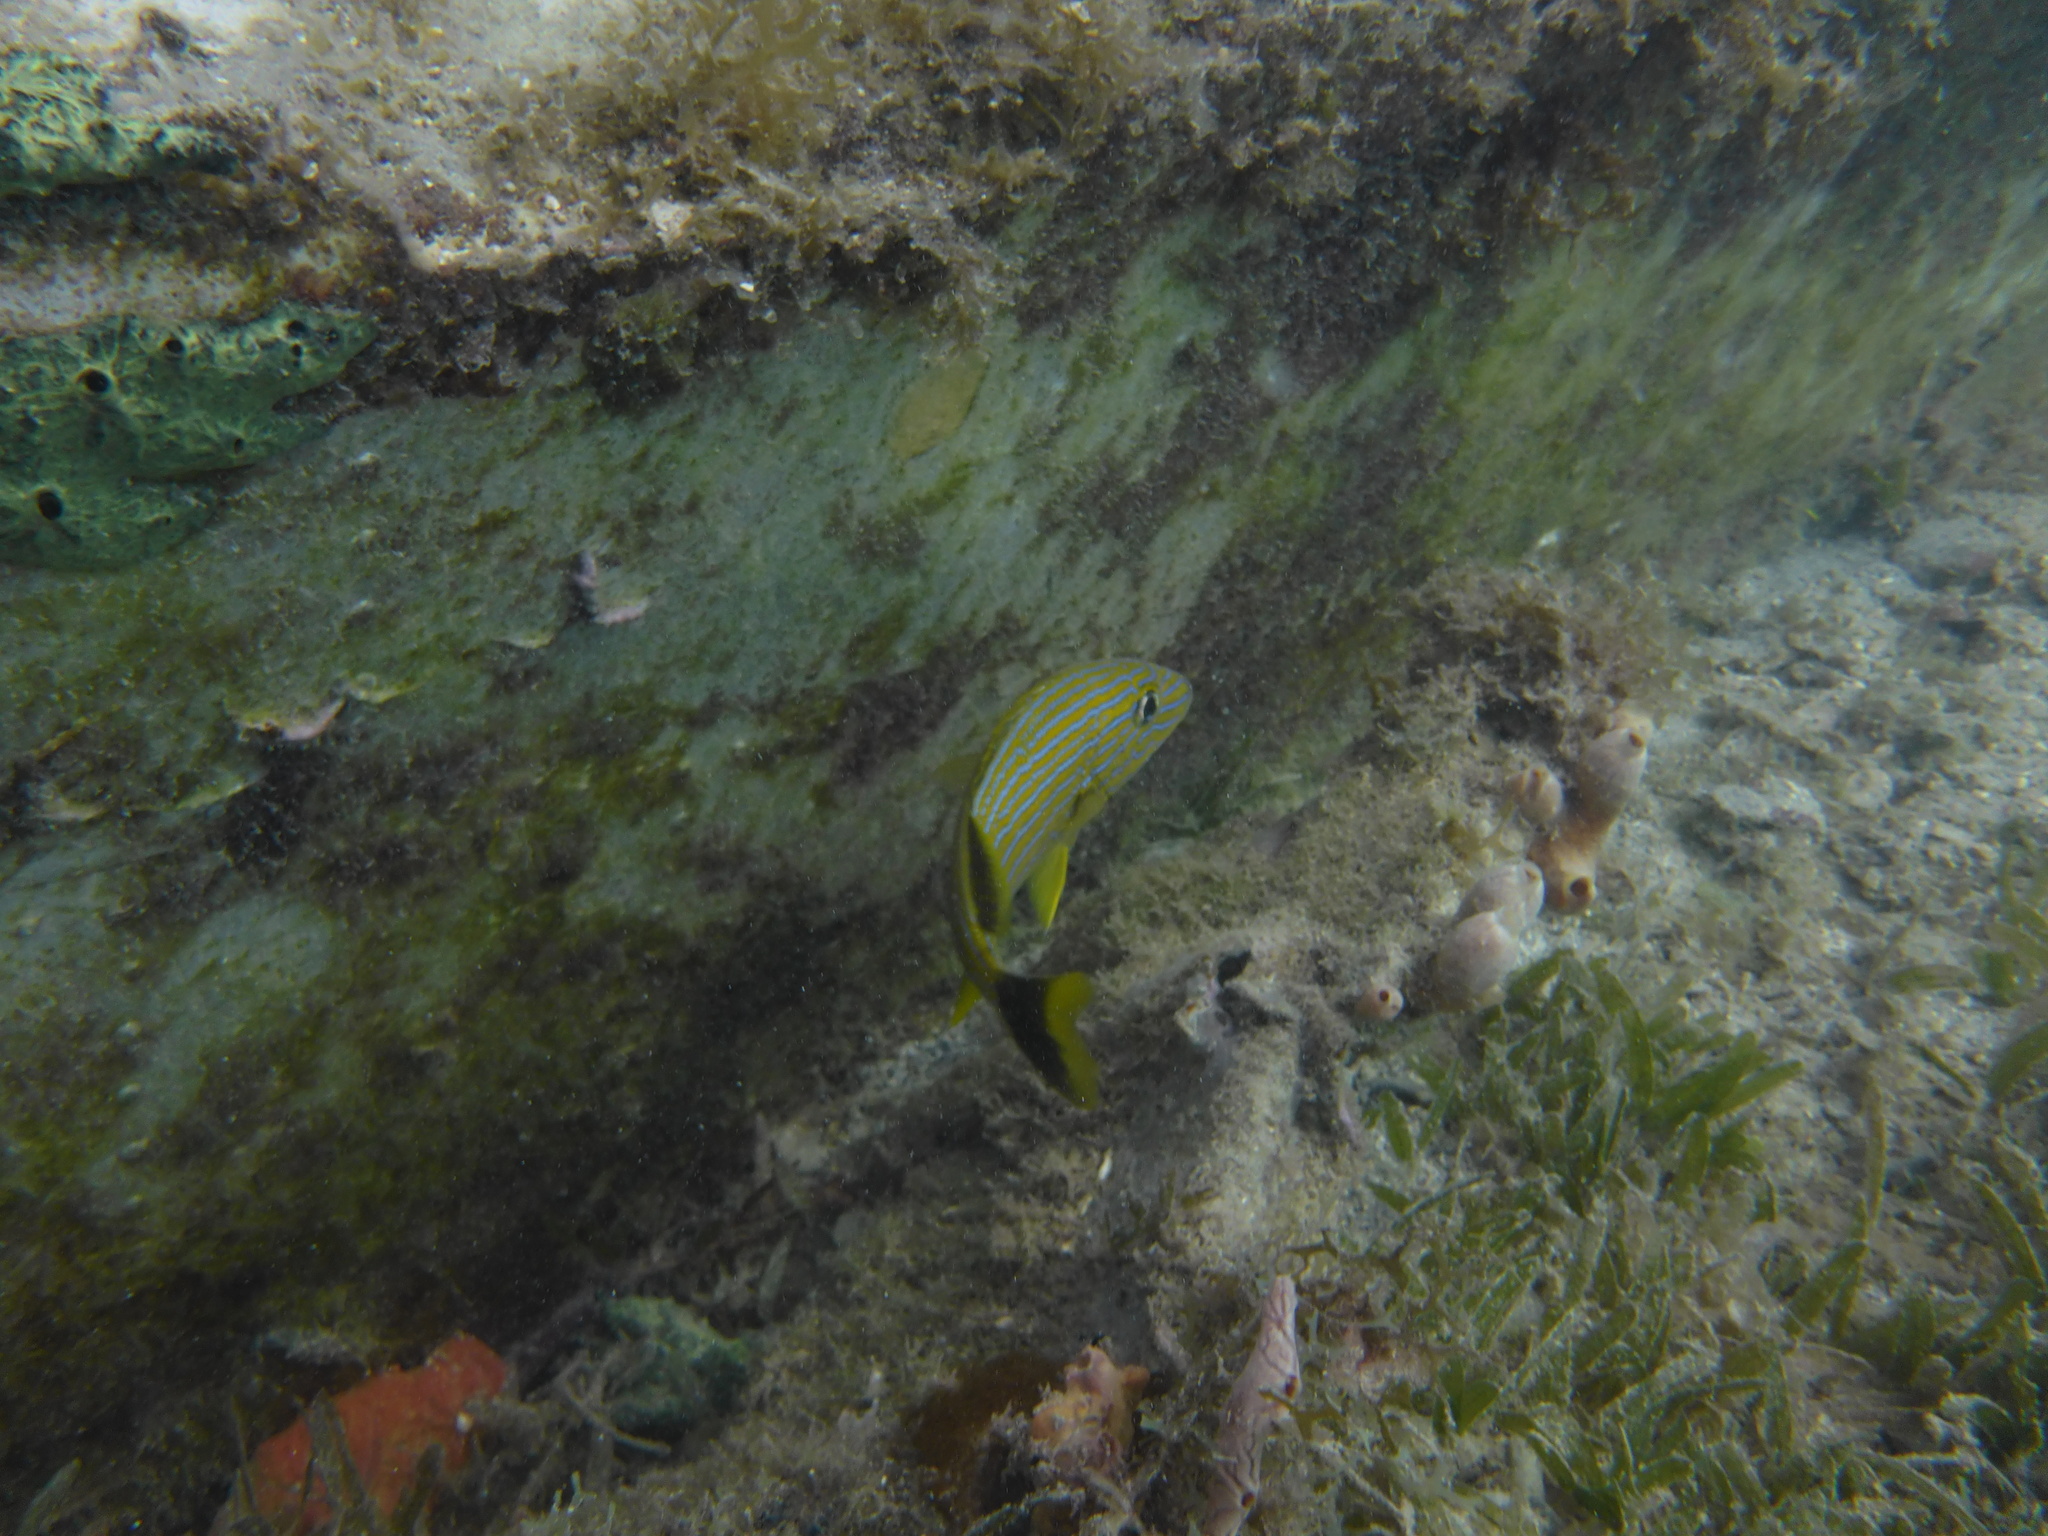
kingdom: Animalia
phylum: Chordata
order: Perciformes
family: Haemulidae
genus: Haemulon
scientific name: Haemulon sciurus
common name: Bluestriped grunt
